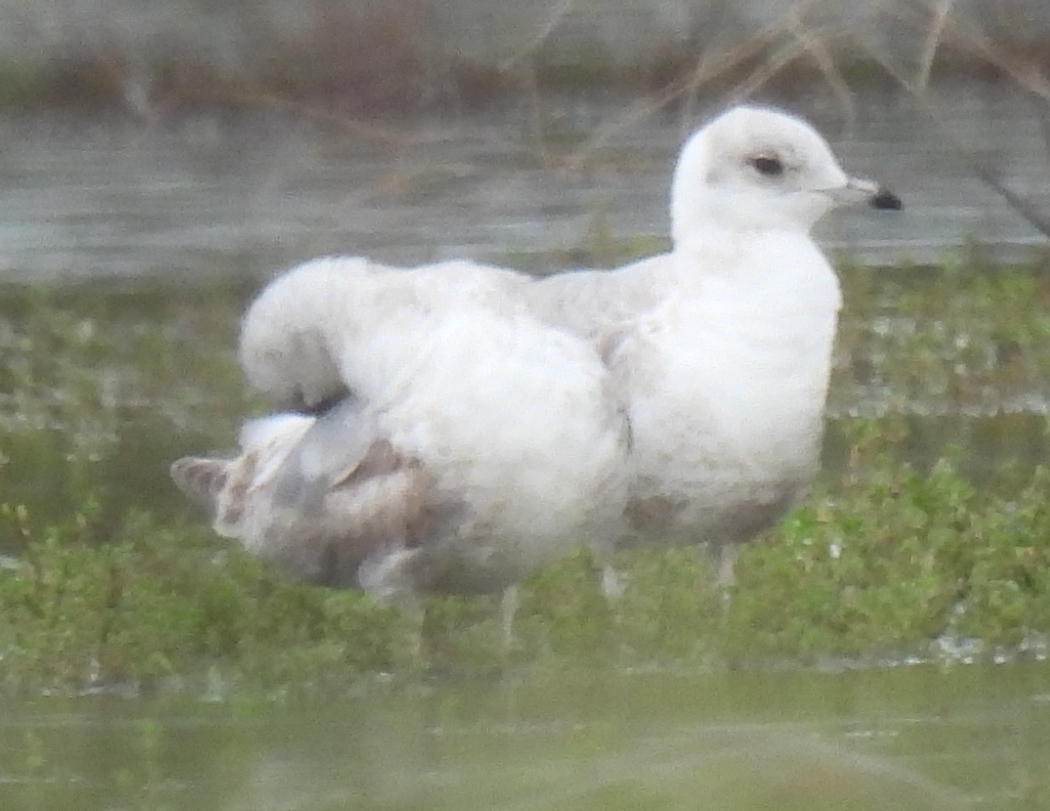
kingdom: Animalia
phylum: Chordata
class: Aves
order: Charadriiformes
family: Laridae
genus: Larus
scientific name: Larus brachyrhynchus
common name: Short-billed gull
